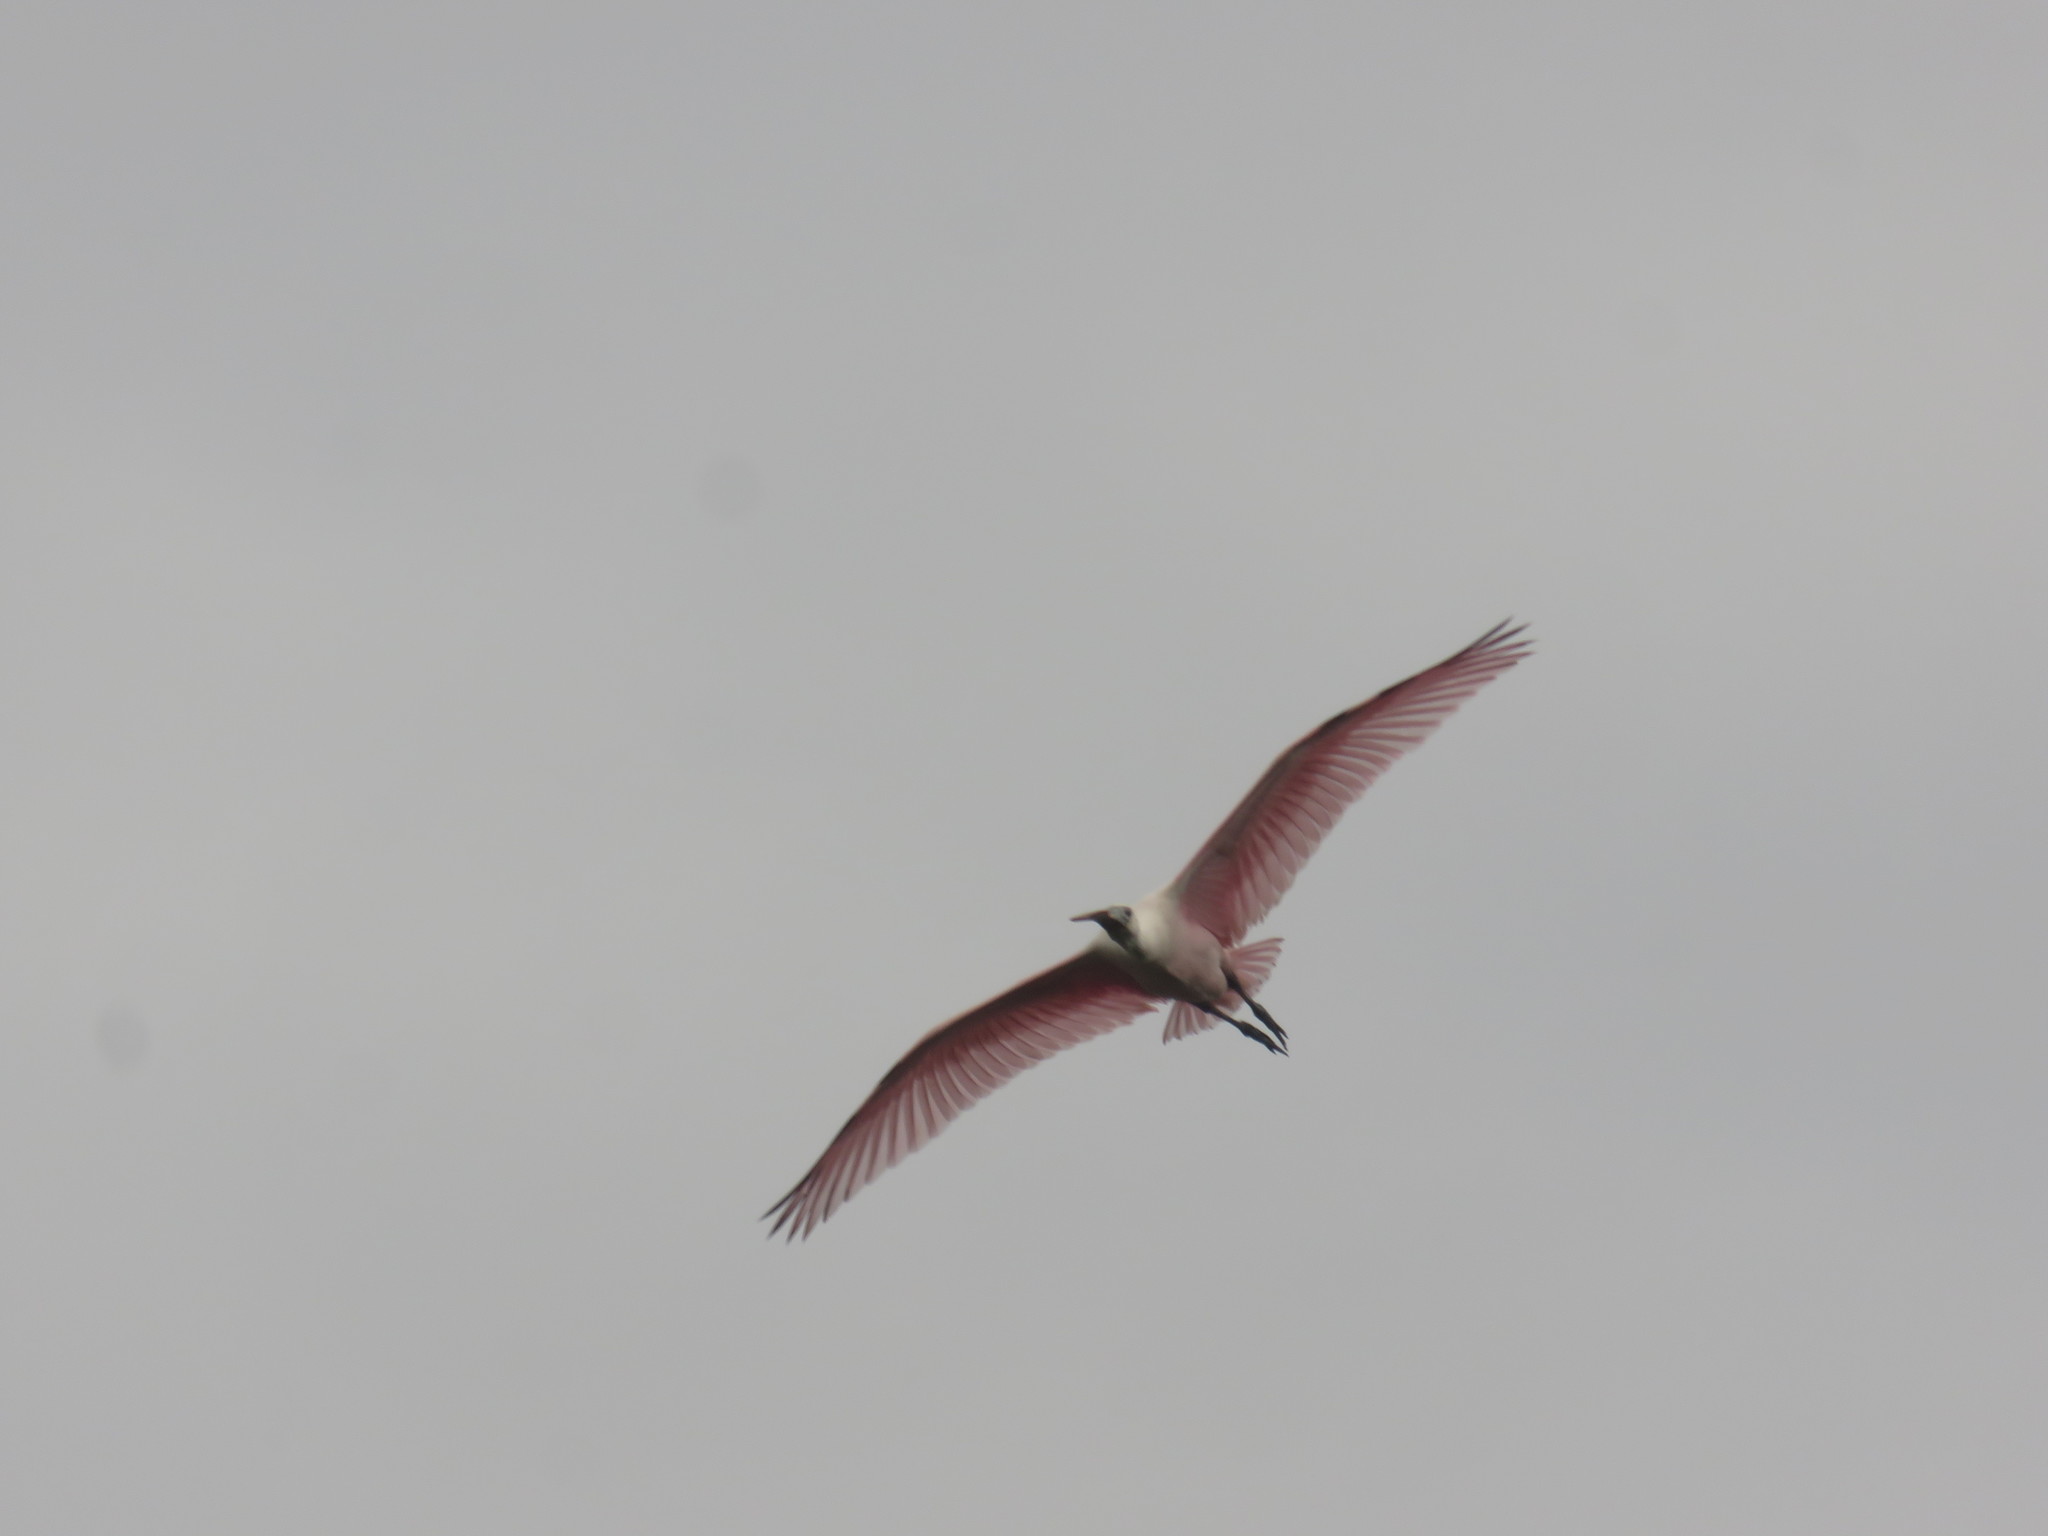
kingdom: Animalia
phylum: Chordata
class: Aves
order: Pelecaniformes
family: Threskiornithidae
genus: Platalea
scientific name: Platalea ajaja
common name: Roseate spoonbill
